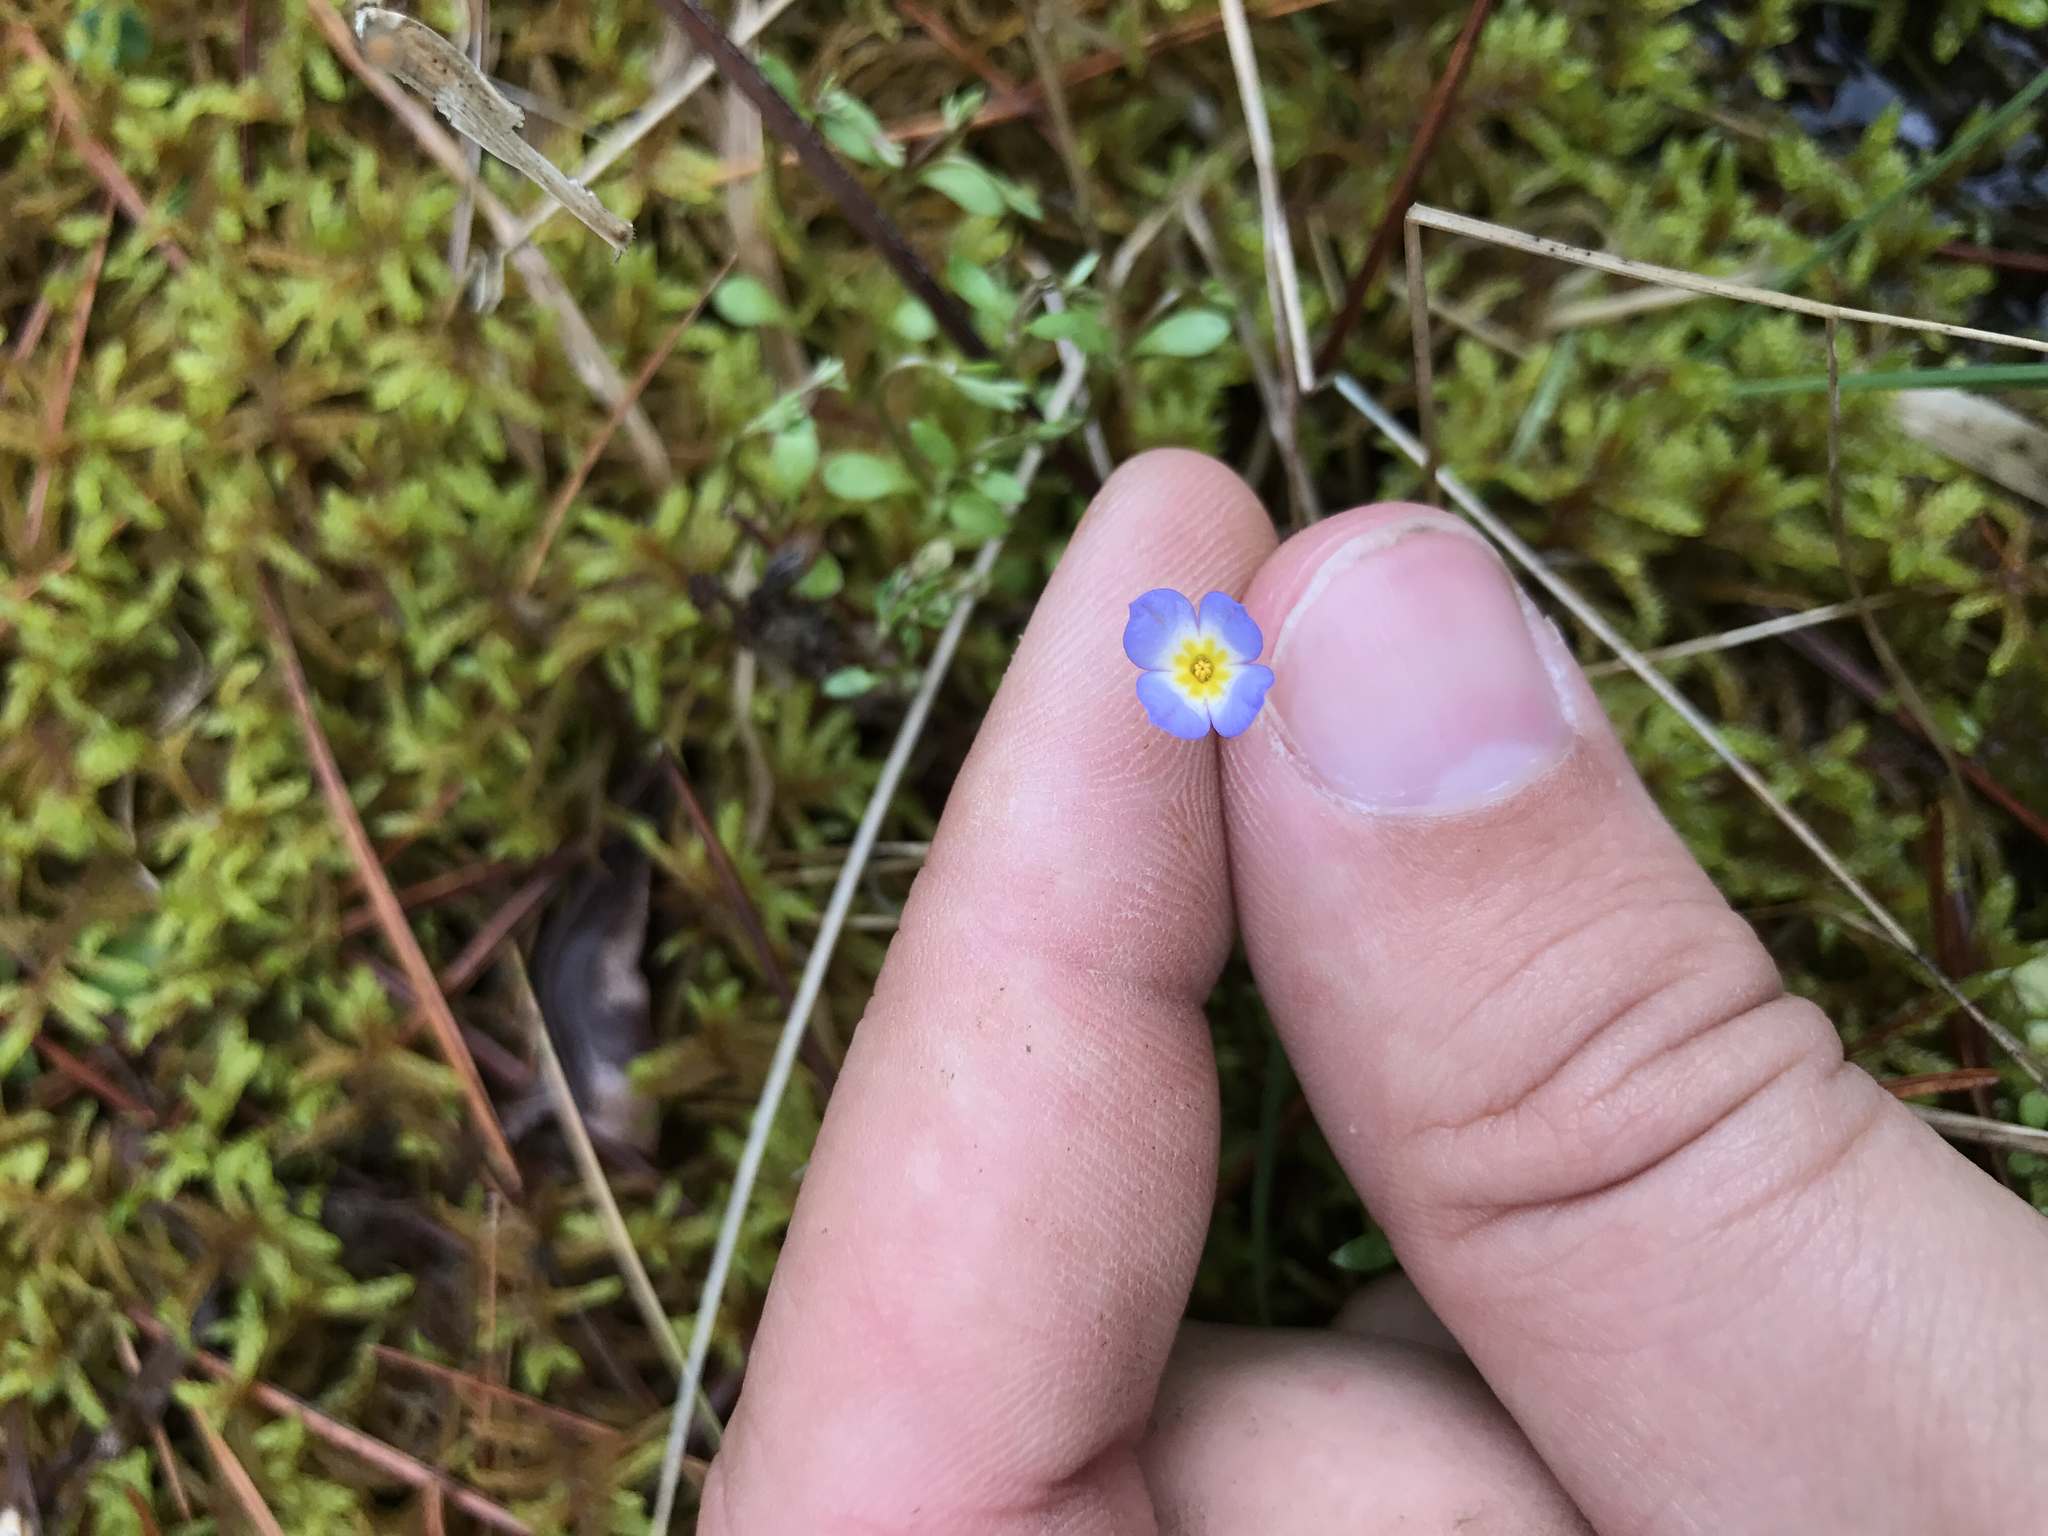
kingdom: Plantae
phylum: Tracheophyta
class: Magnoliopsida
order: Gentianales
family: Rubiaceae
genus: Houstonia
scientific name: Houstonia caerulea
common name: Bluets
